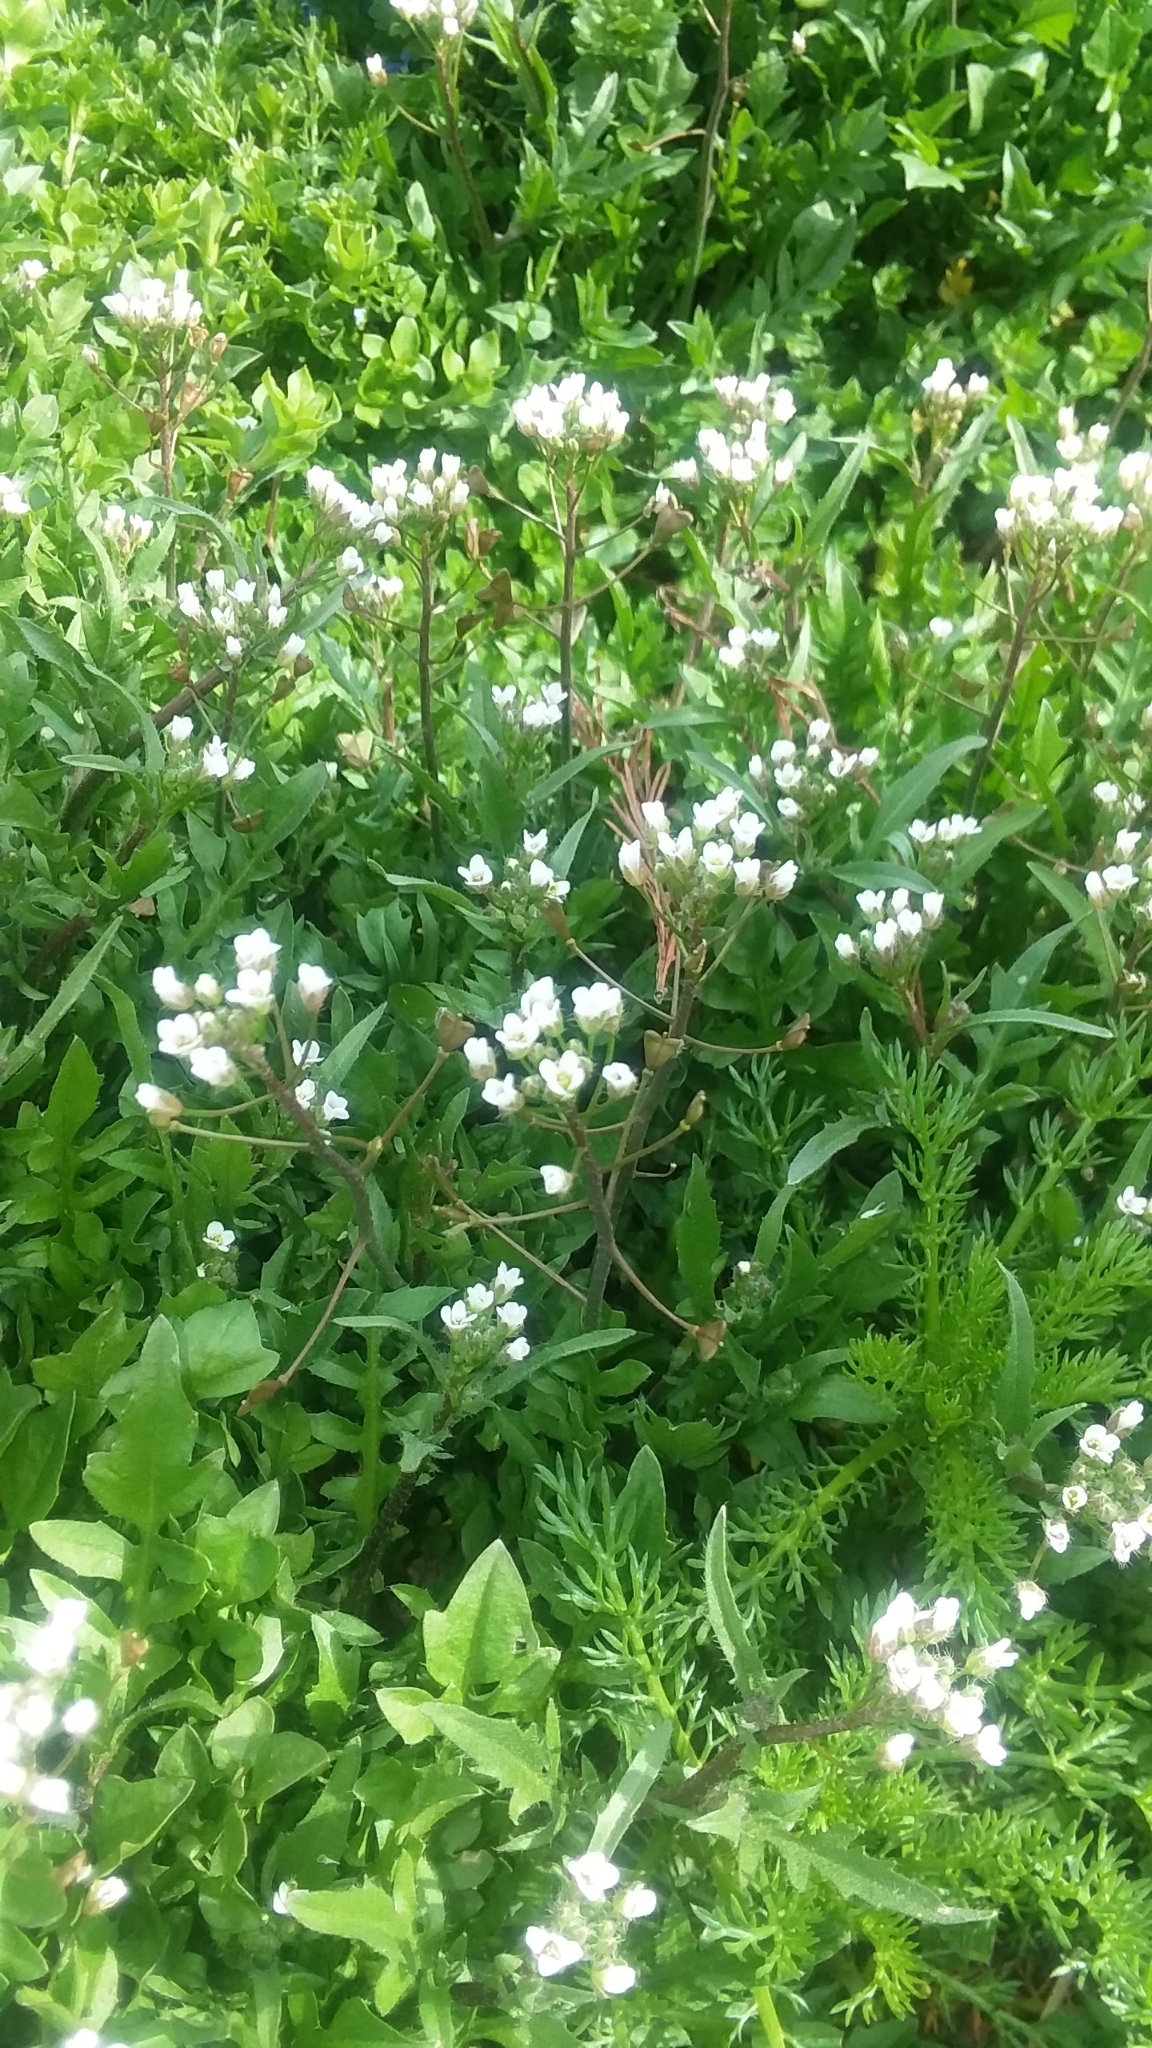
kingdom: Plantae
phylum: Tracheophyta
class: Magnoliopsida
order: Brassicales
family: Brassicaceae
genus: Capsella
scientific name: Capsella bursa-pastoris
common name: Shepherd's purse
